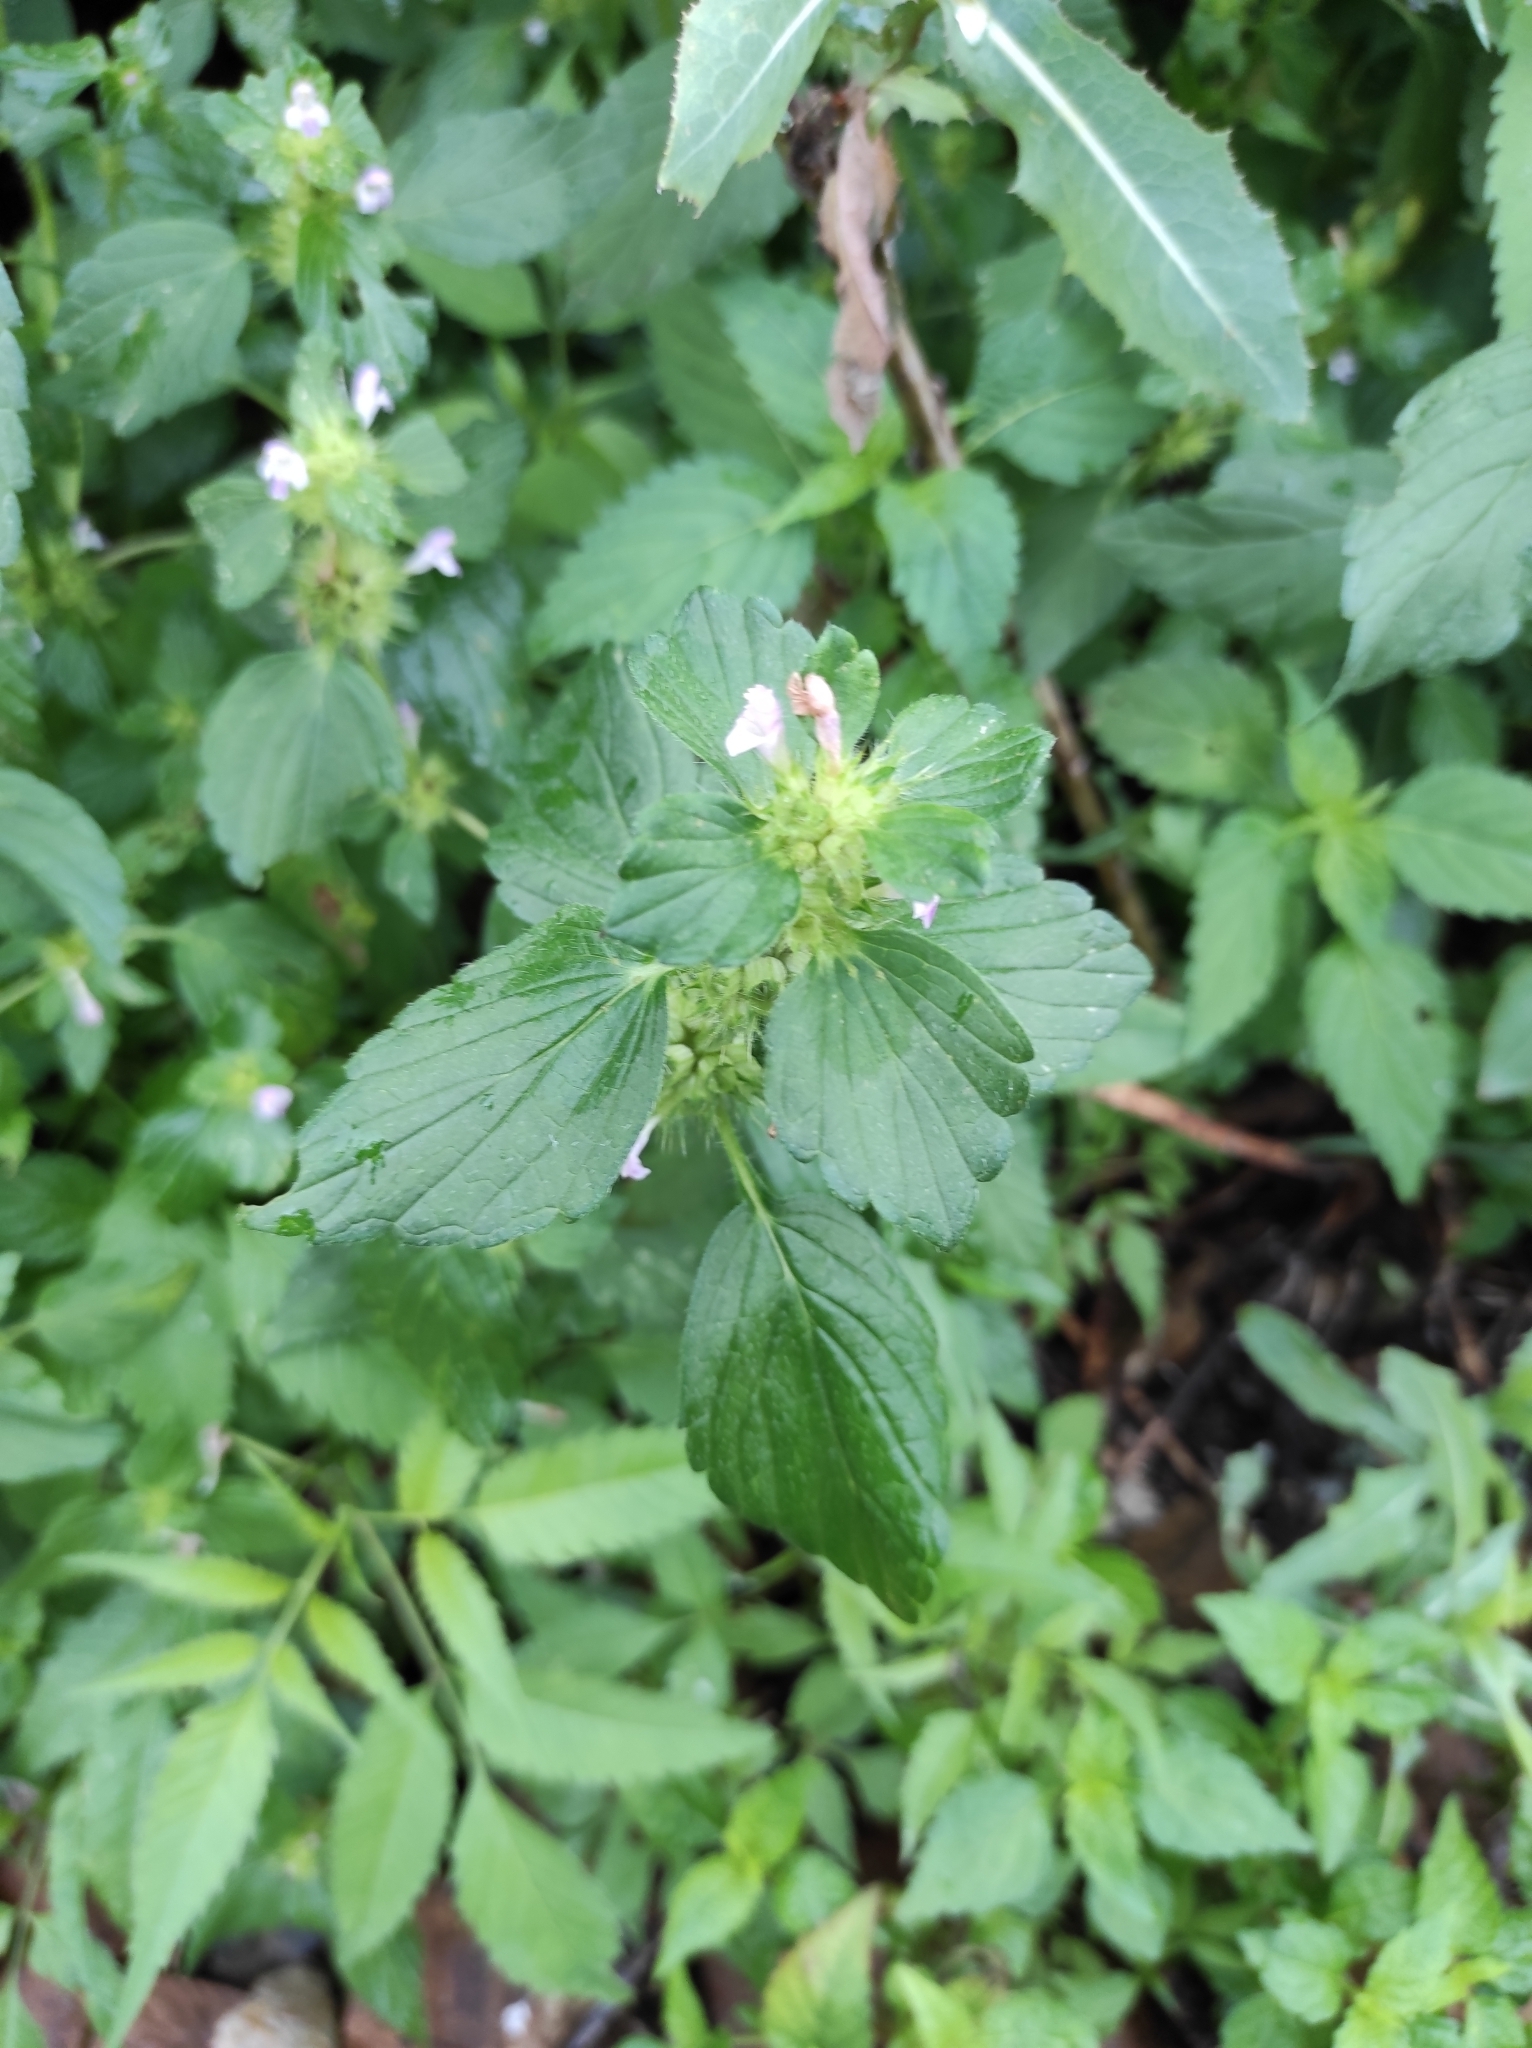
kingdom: Plantae
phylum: Tracheophyta
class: Magnoliopsida
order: Lamiales
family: Lamiaceae
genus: Galeopsis
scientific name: Galeopsis bifida
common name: Bifid hemp-nettle
